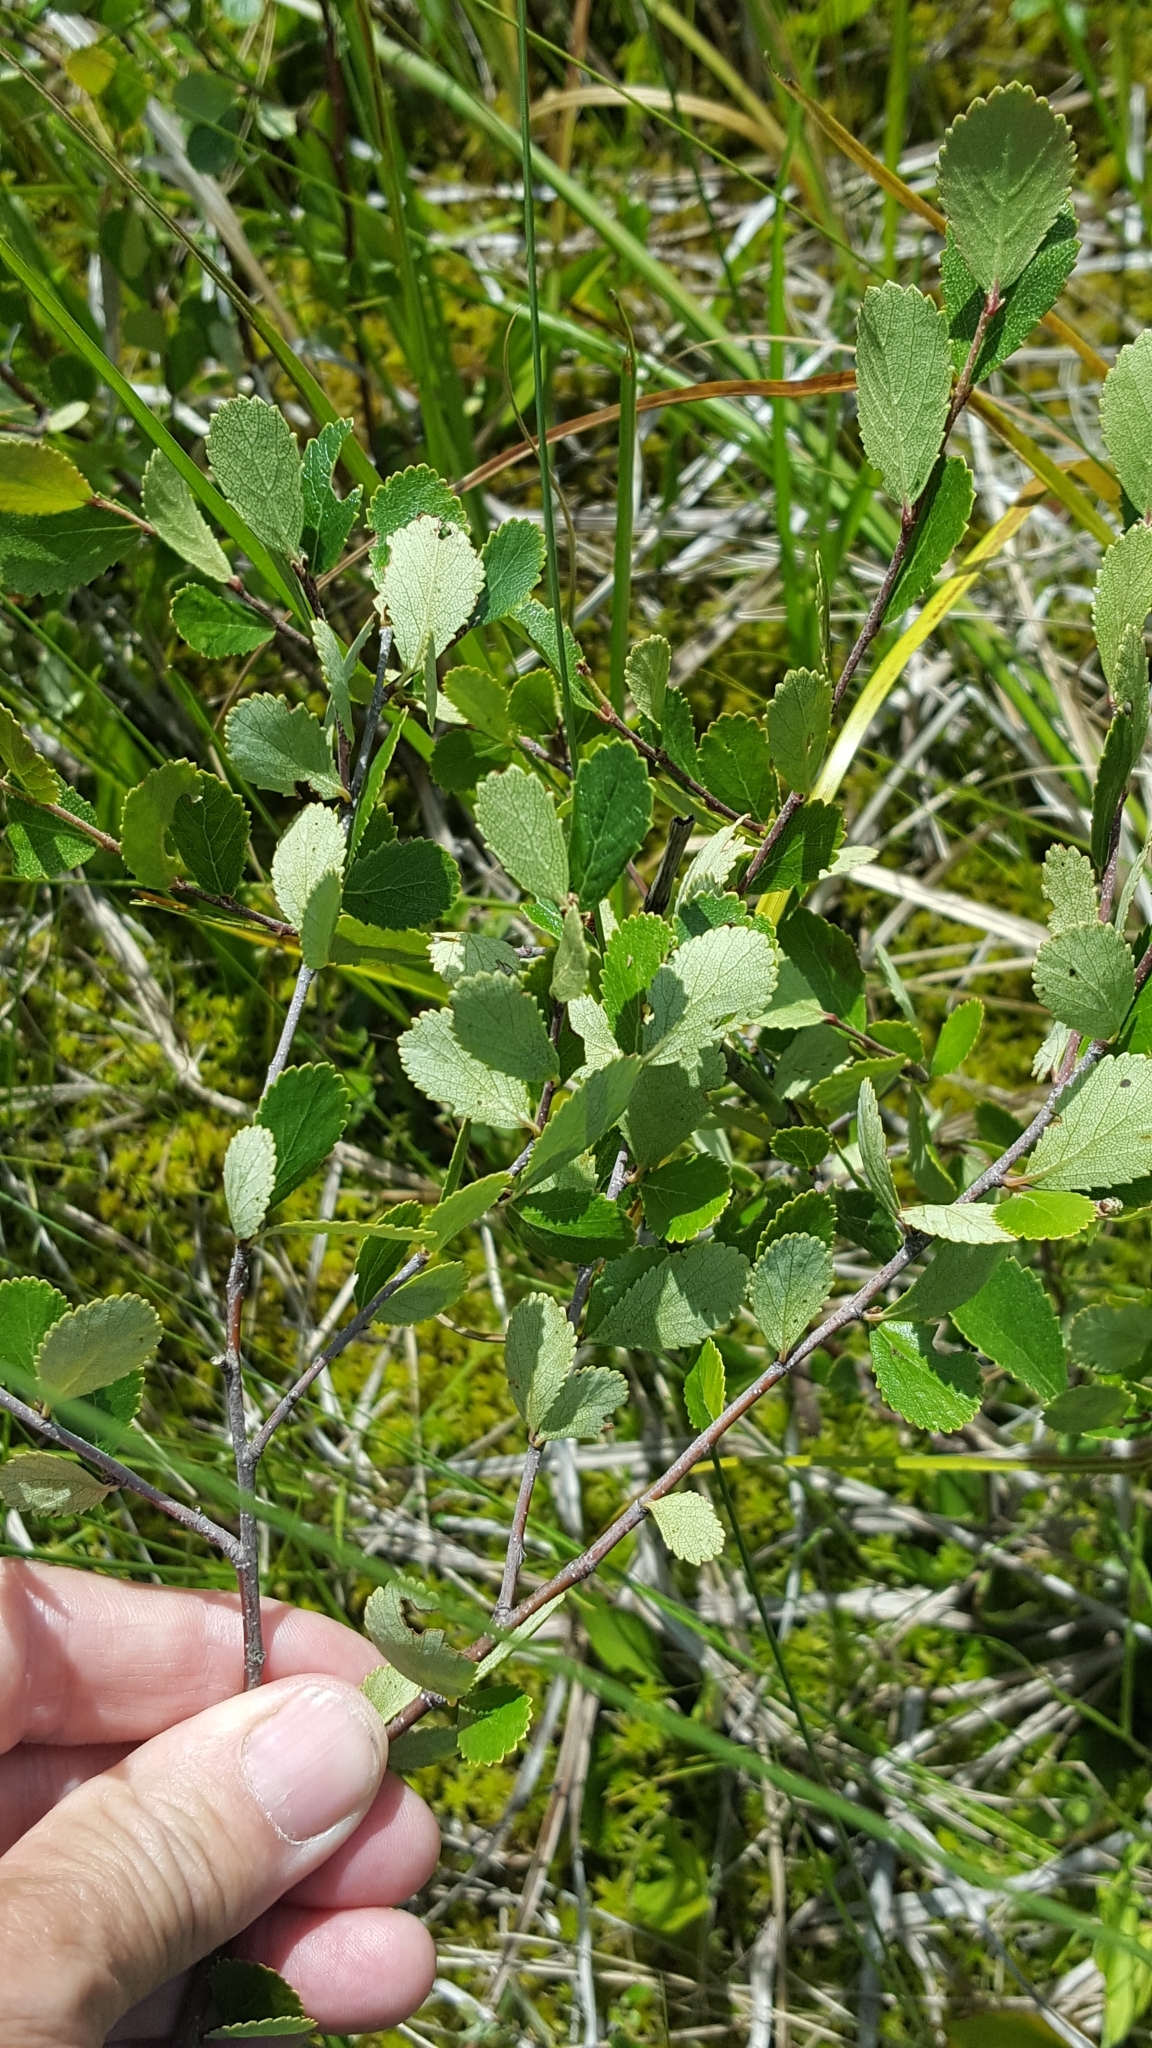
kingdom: Plantae
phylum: Tracheophyta
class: Magnoliopsida
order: Fagales
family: Betulaceae
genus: Betula
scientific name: Betula pumila
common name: Bog birch
